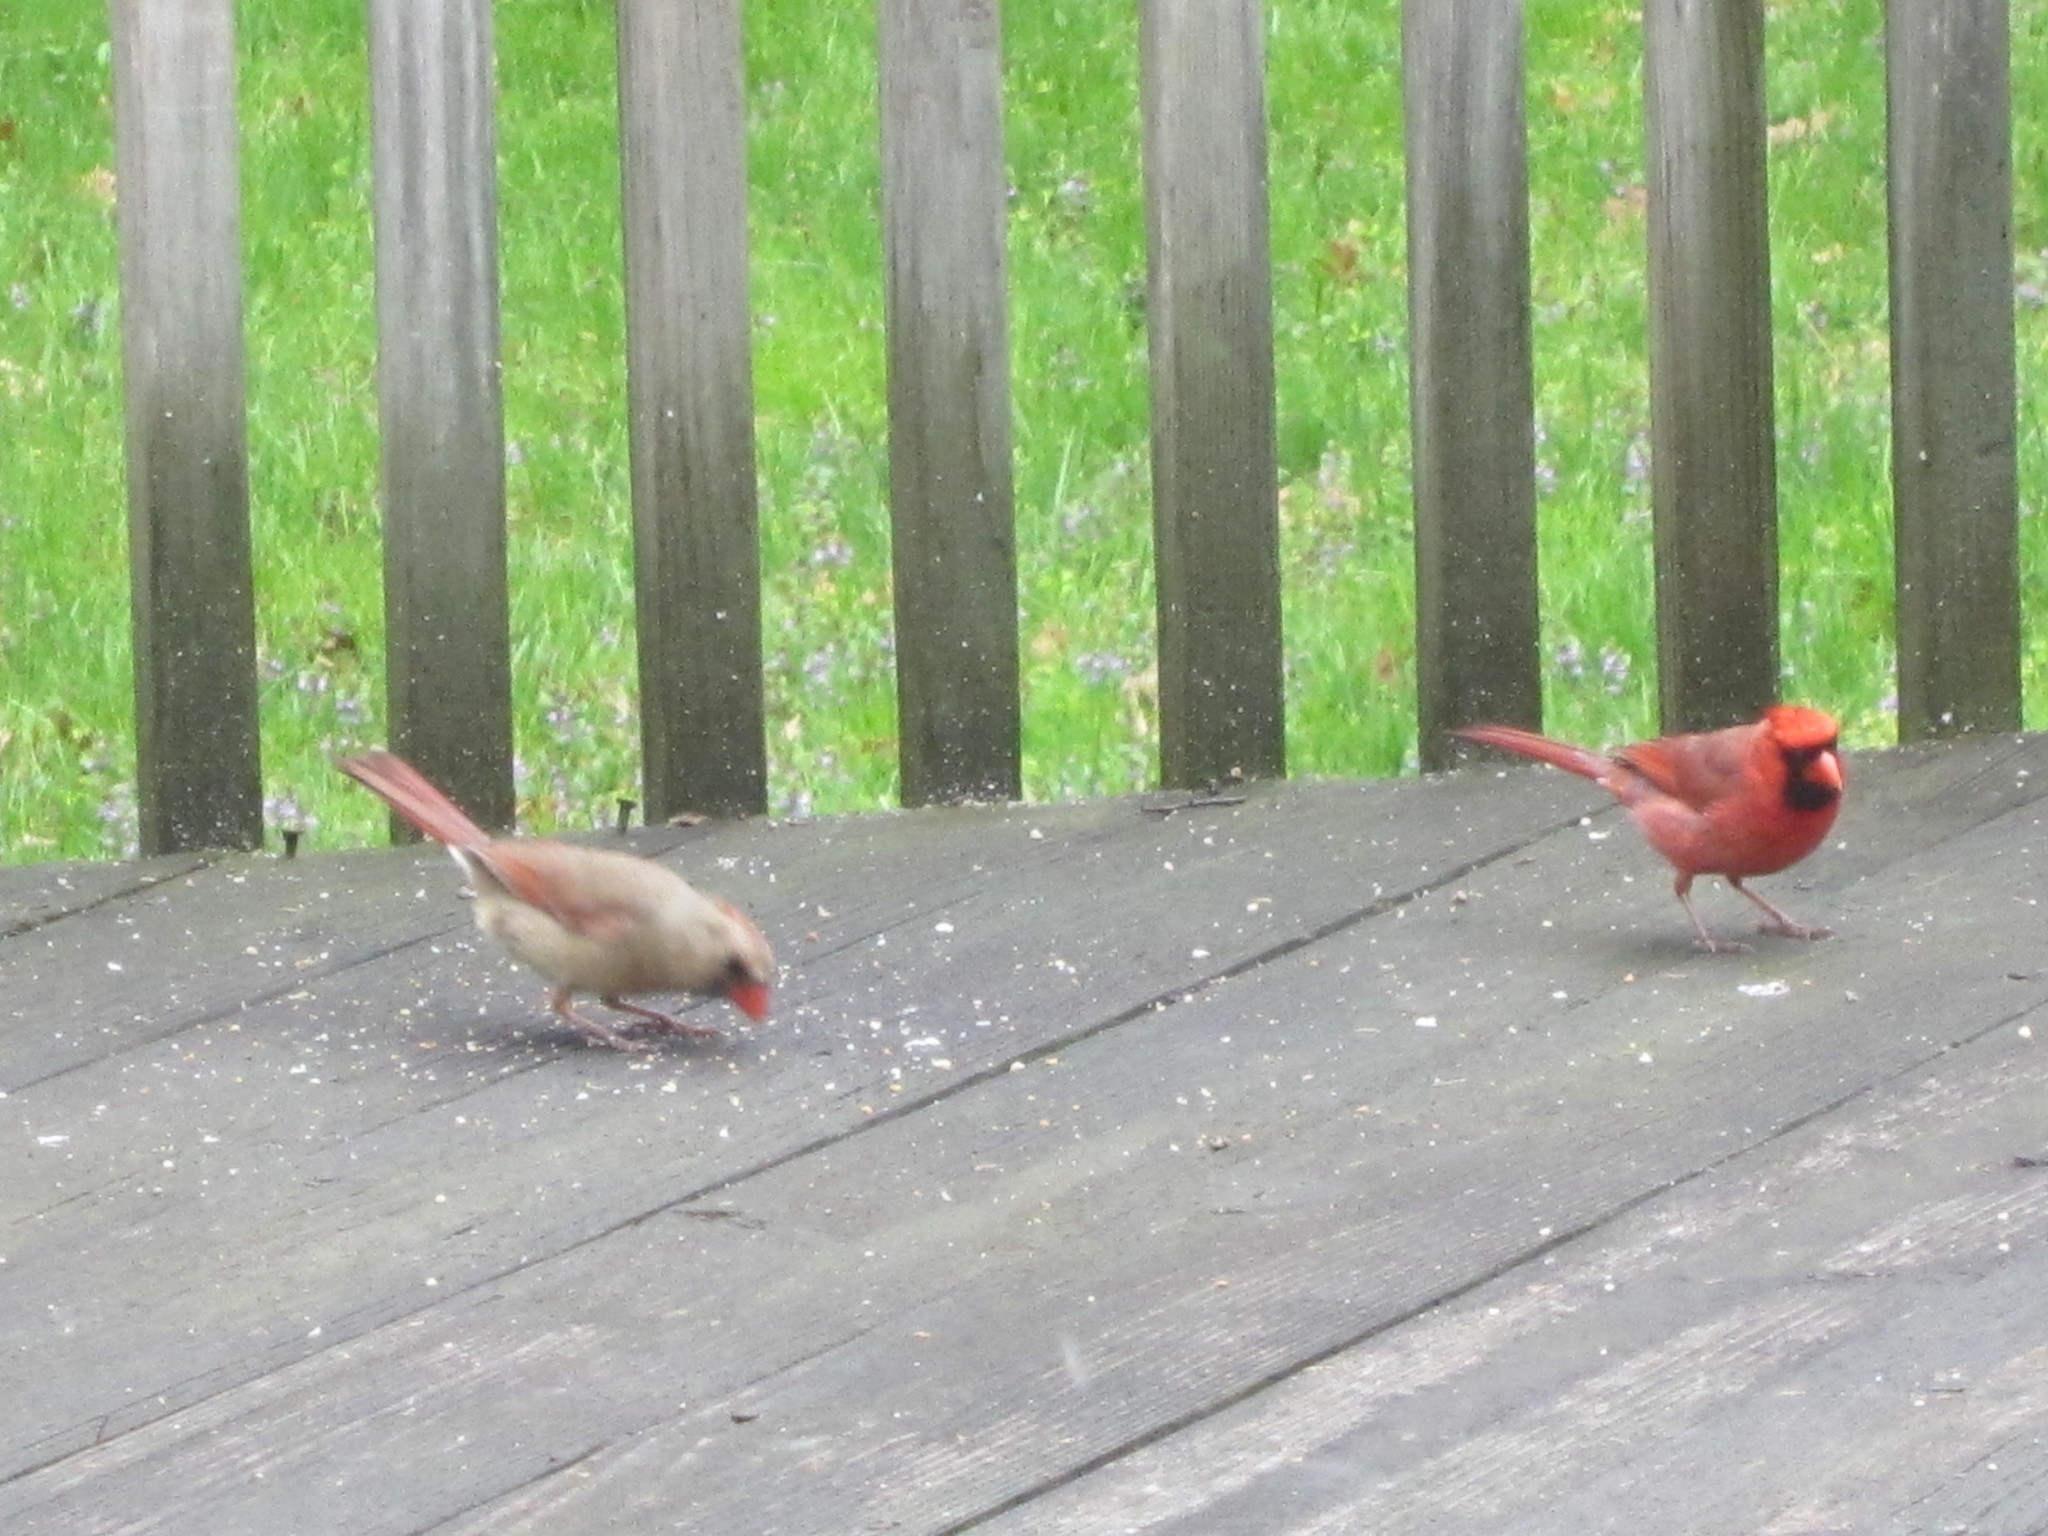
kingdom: Animalia
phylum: Chordata
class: Aves
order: Passeriformes
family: Cardinalidae
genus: Cardinalis
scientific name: Cardinalis cardinalis
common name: Northern cardinal
